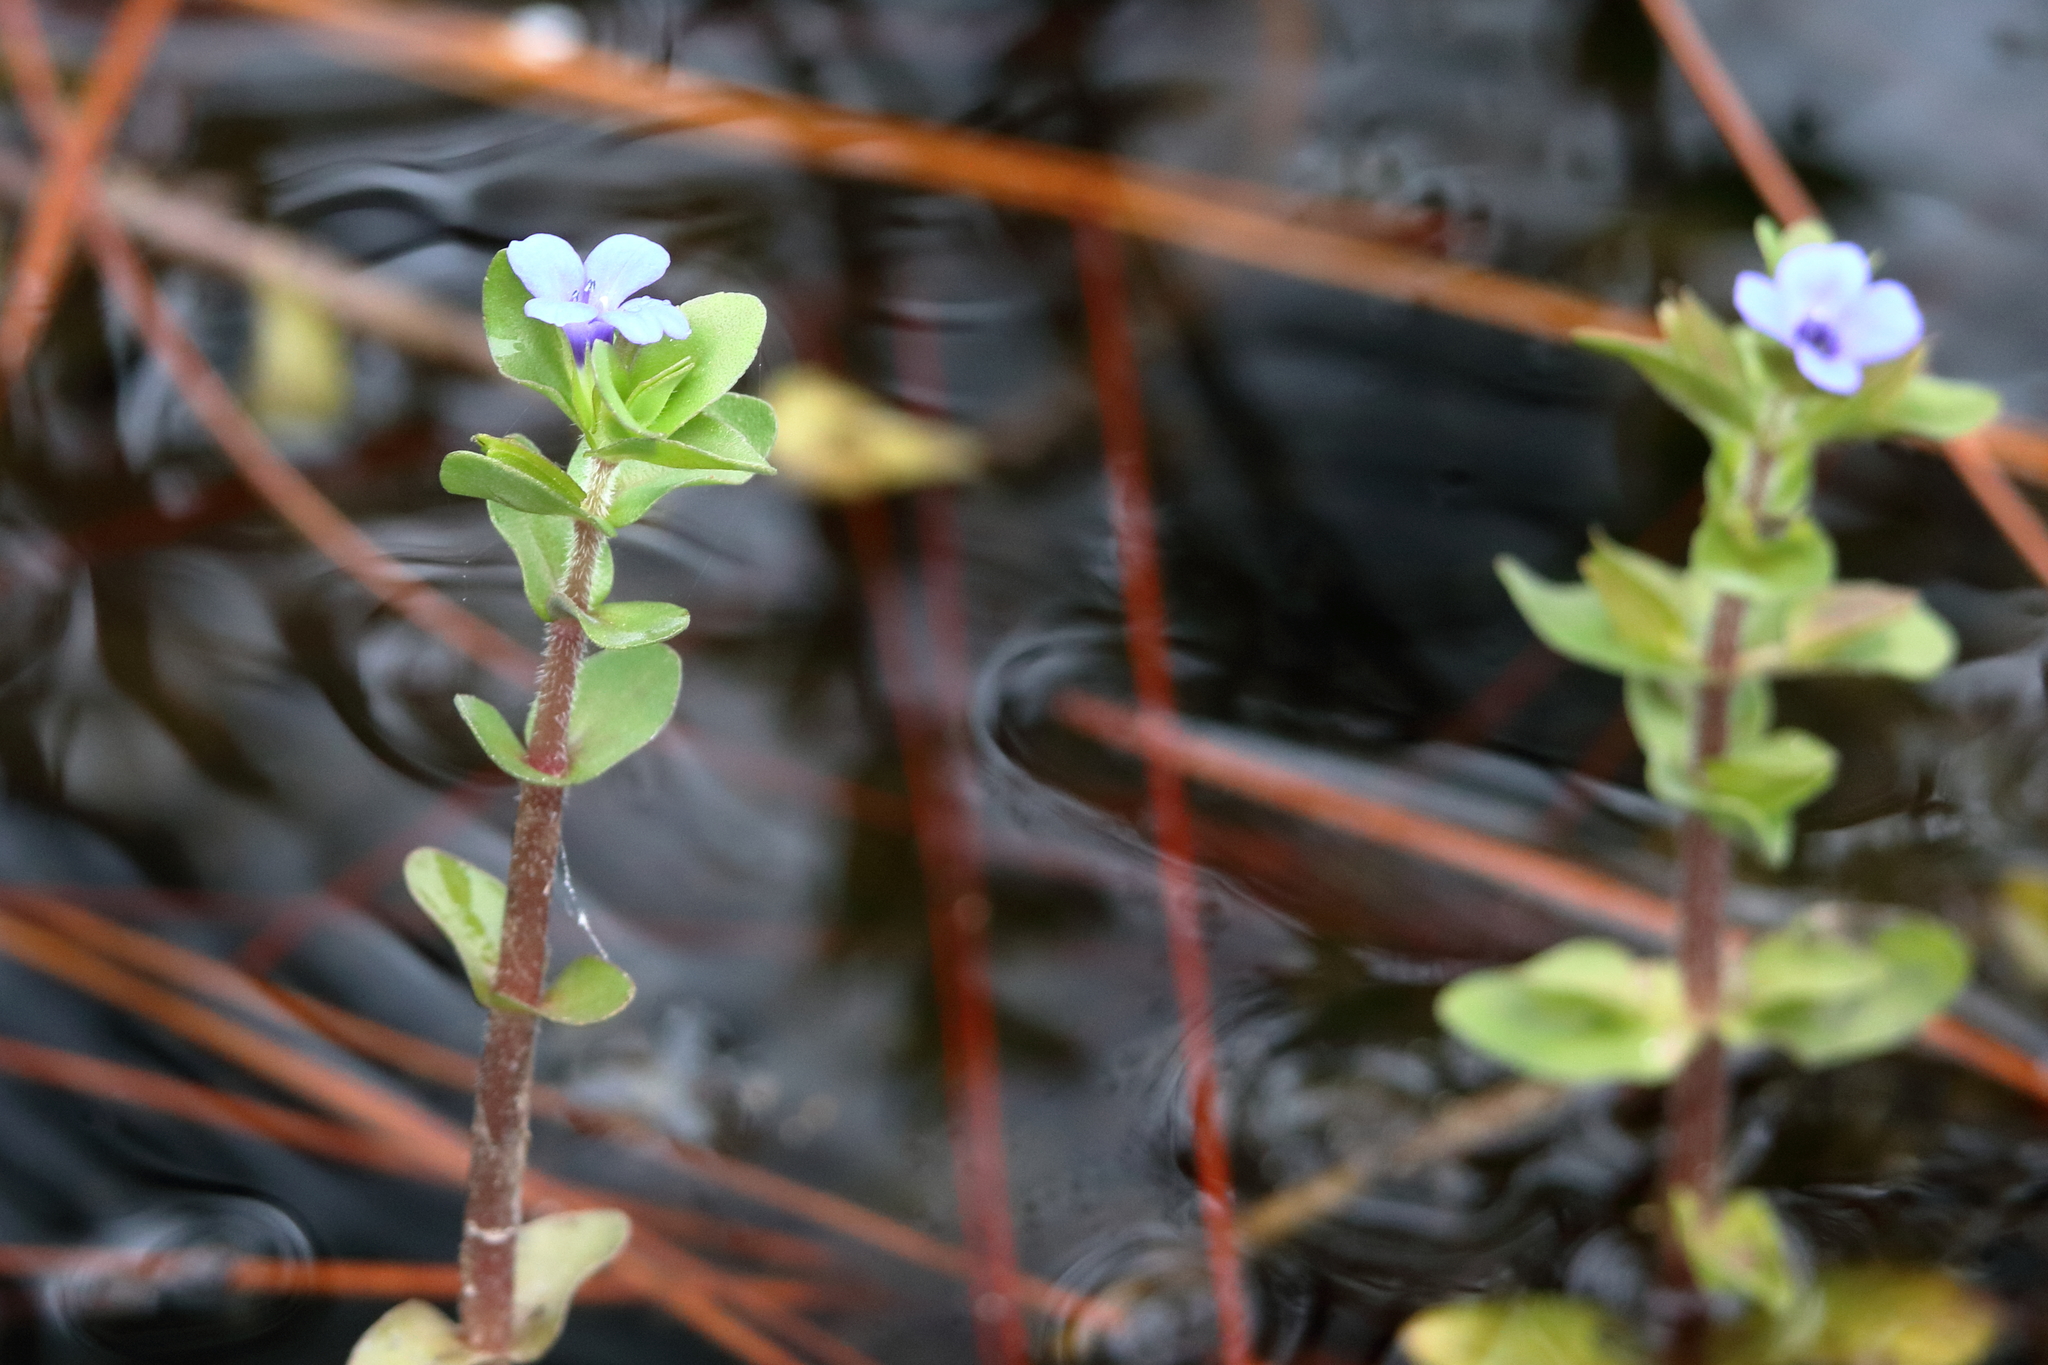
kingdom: Plantae
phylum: Tracheophyta
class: Magnoliopsida
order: Lamiales
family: Plantaginaceae
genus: Bacopa
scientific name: Bacopa caroliniana
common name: Lemon bacopa
